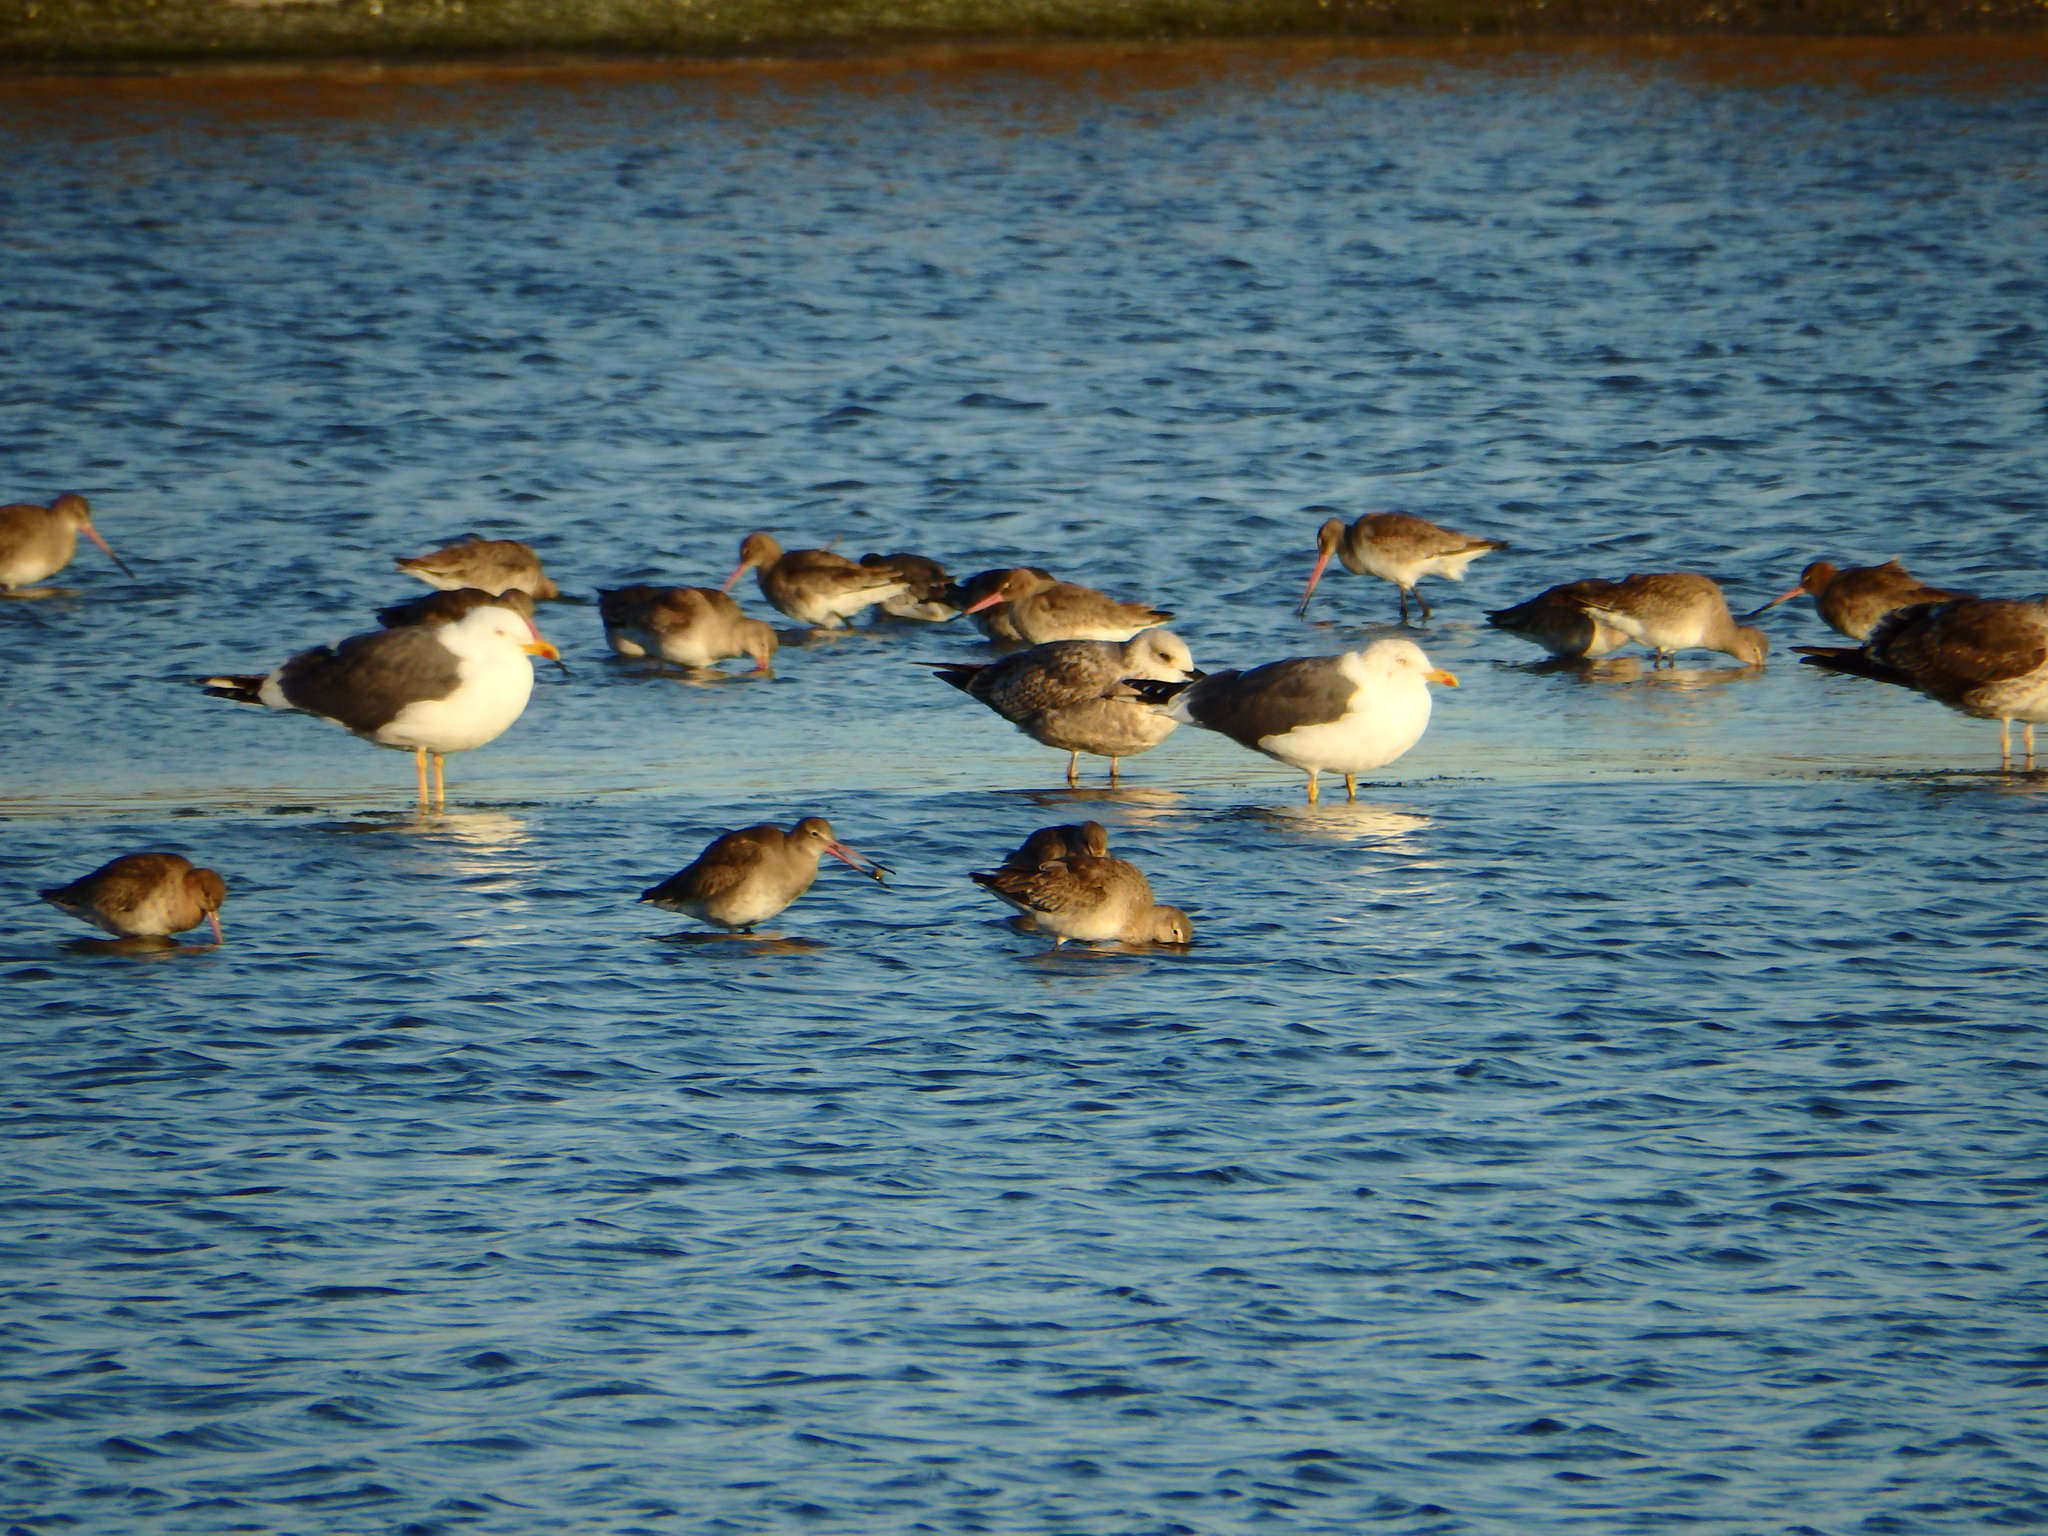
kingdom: Animalia
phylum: Chordata
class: Aves
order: Charadriiformes
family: Laridae
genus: Larus
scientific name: Larus fuscus
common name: Lesser black-backed gull
